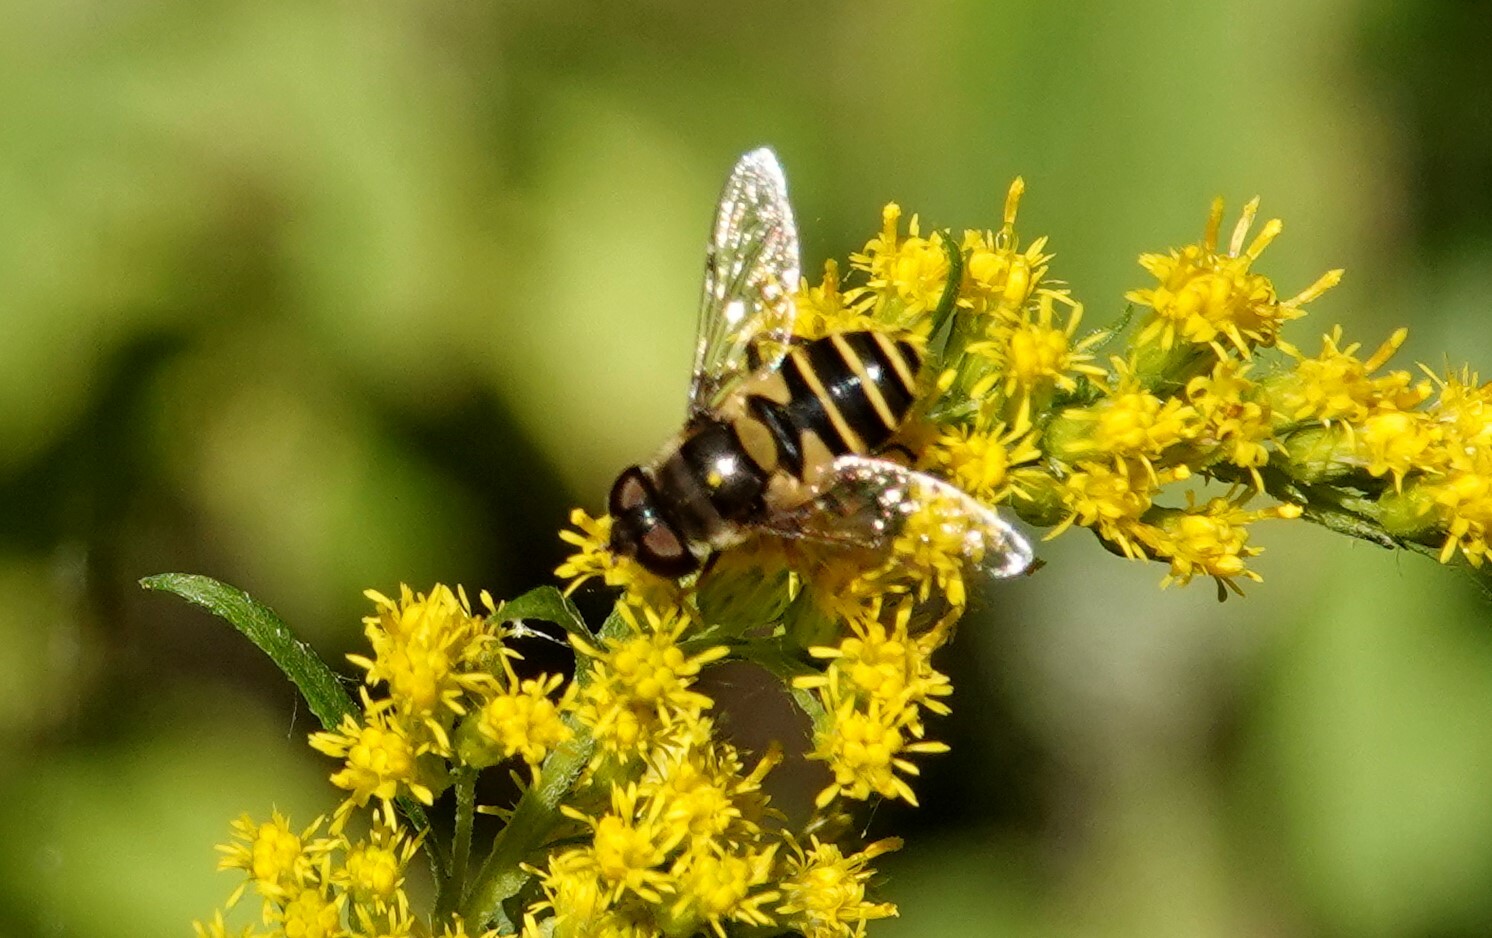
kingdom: Animalia
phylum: Arthropoda
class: Insecta
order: Diptera
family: Syrphidae
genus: Eristalis
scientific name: Eristalis transversa
